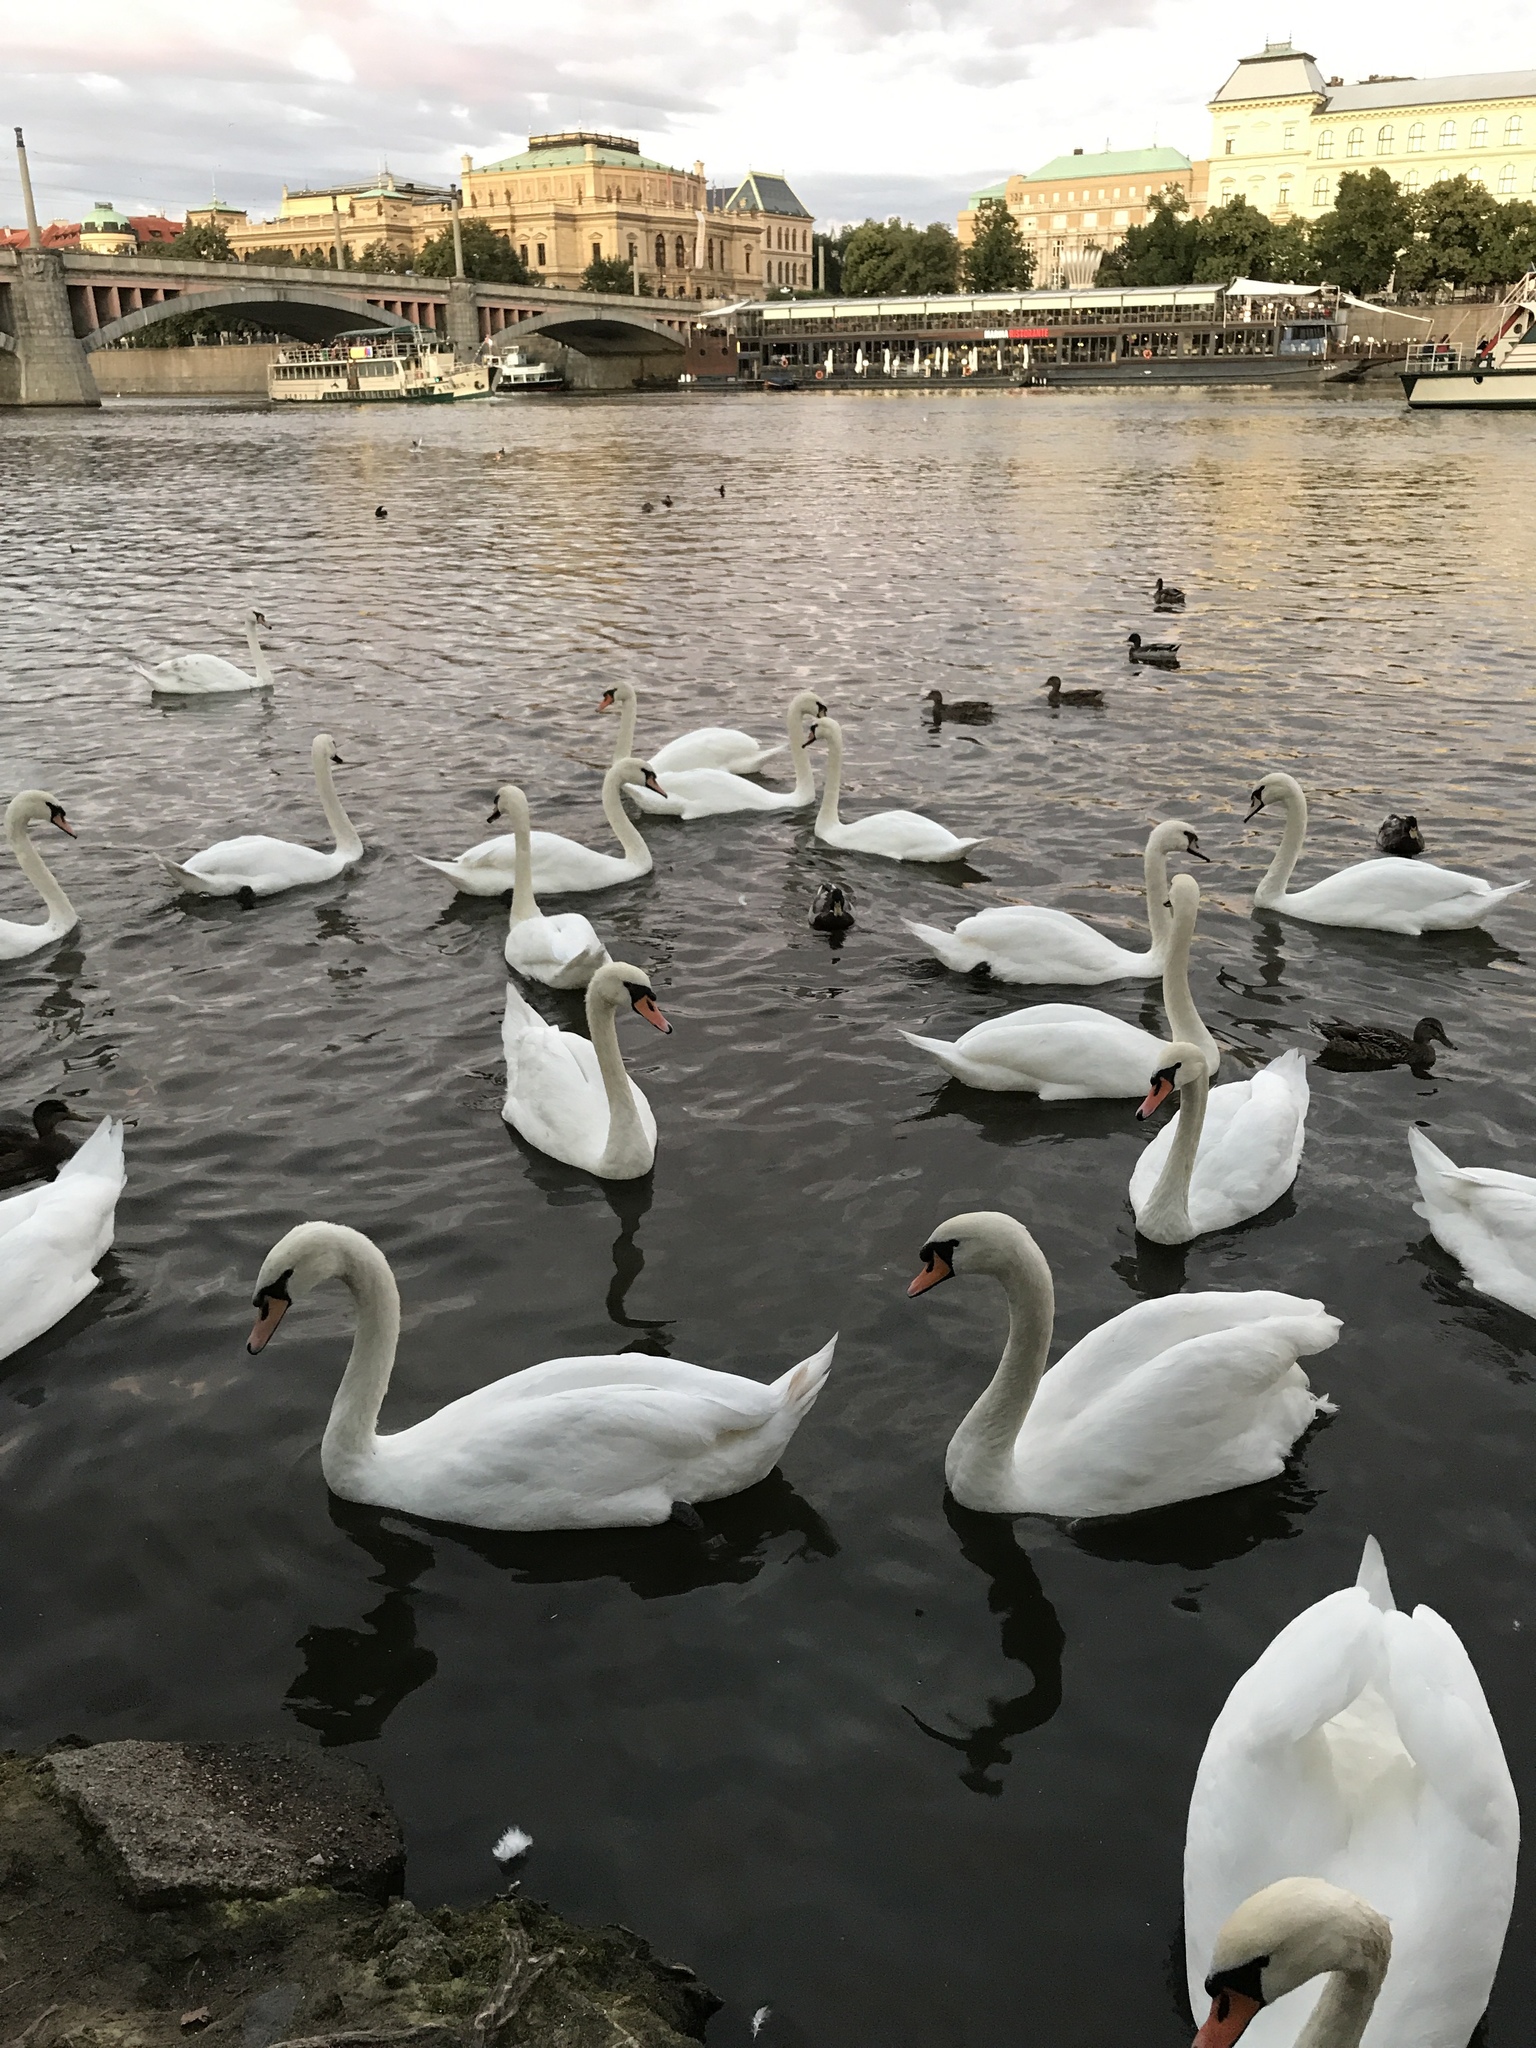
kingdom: Animalia
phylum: Chordata
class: Aves
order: Anseriformes
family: Anatidae
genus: Cygnus
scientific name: Cygnus olor
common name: Mute swan
